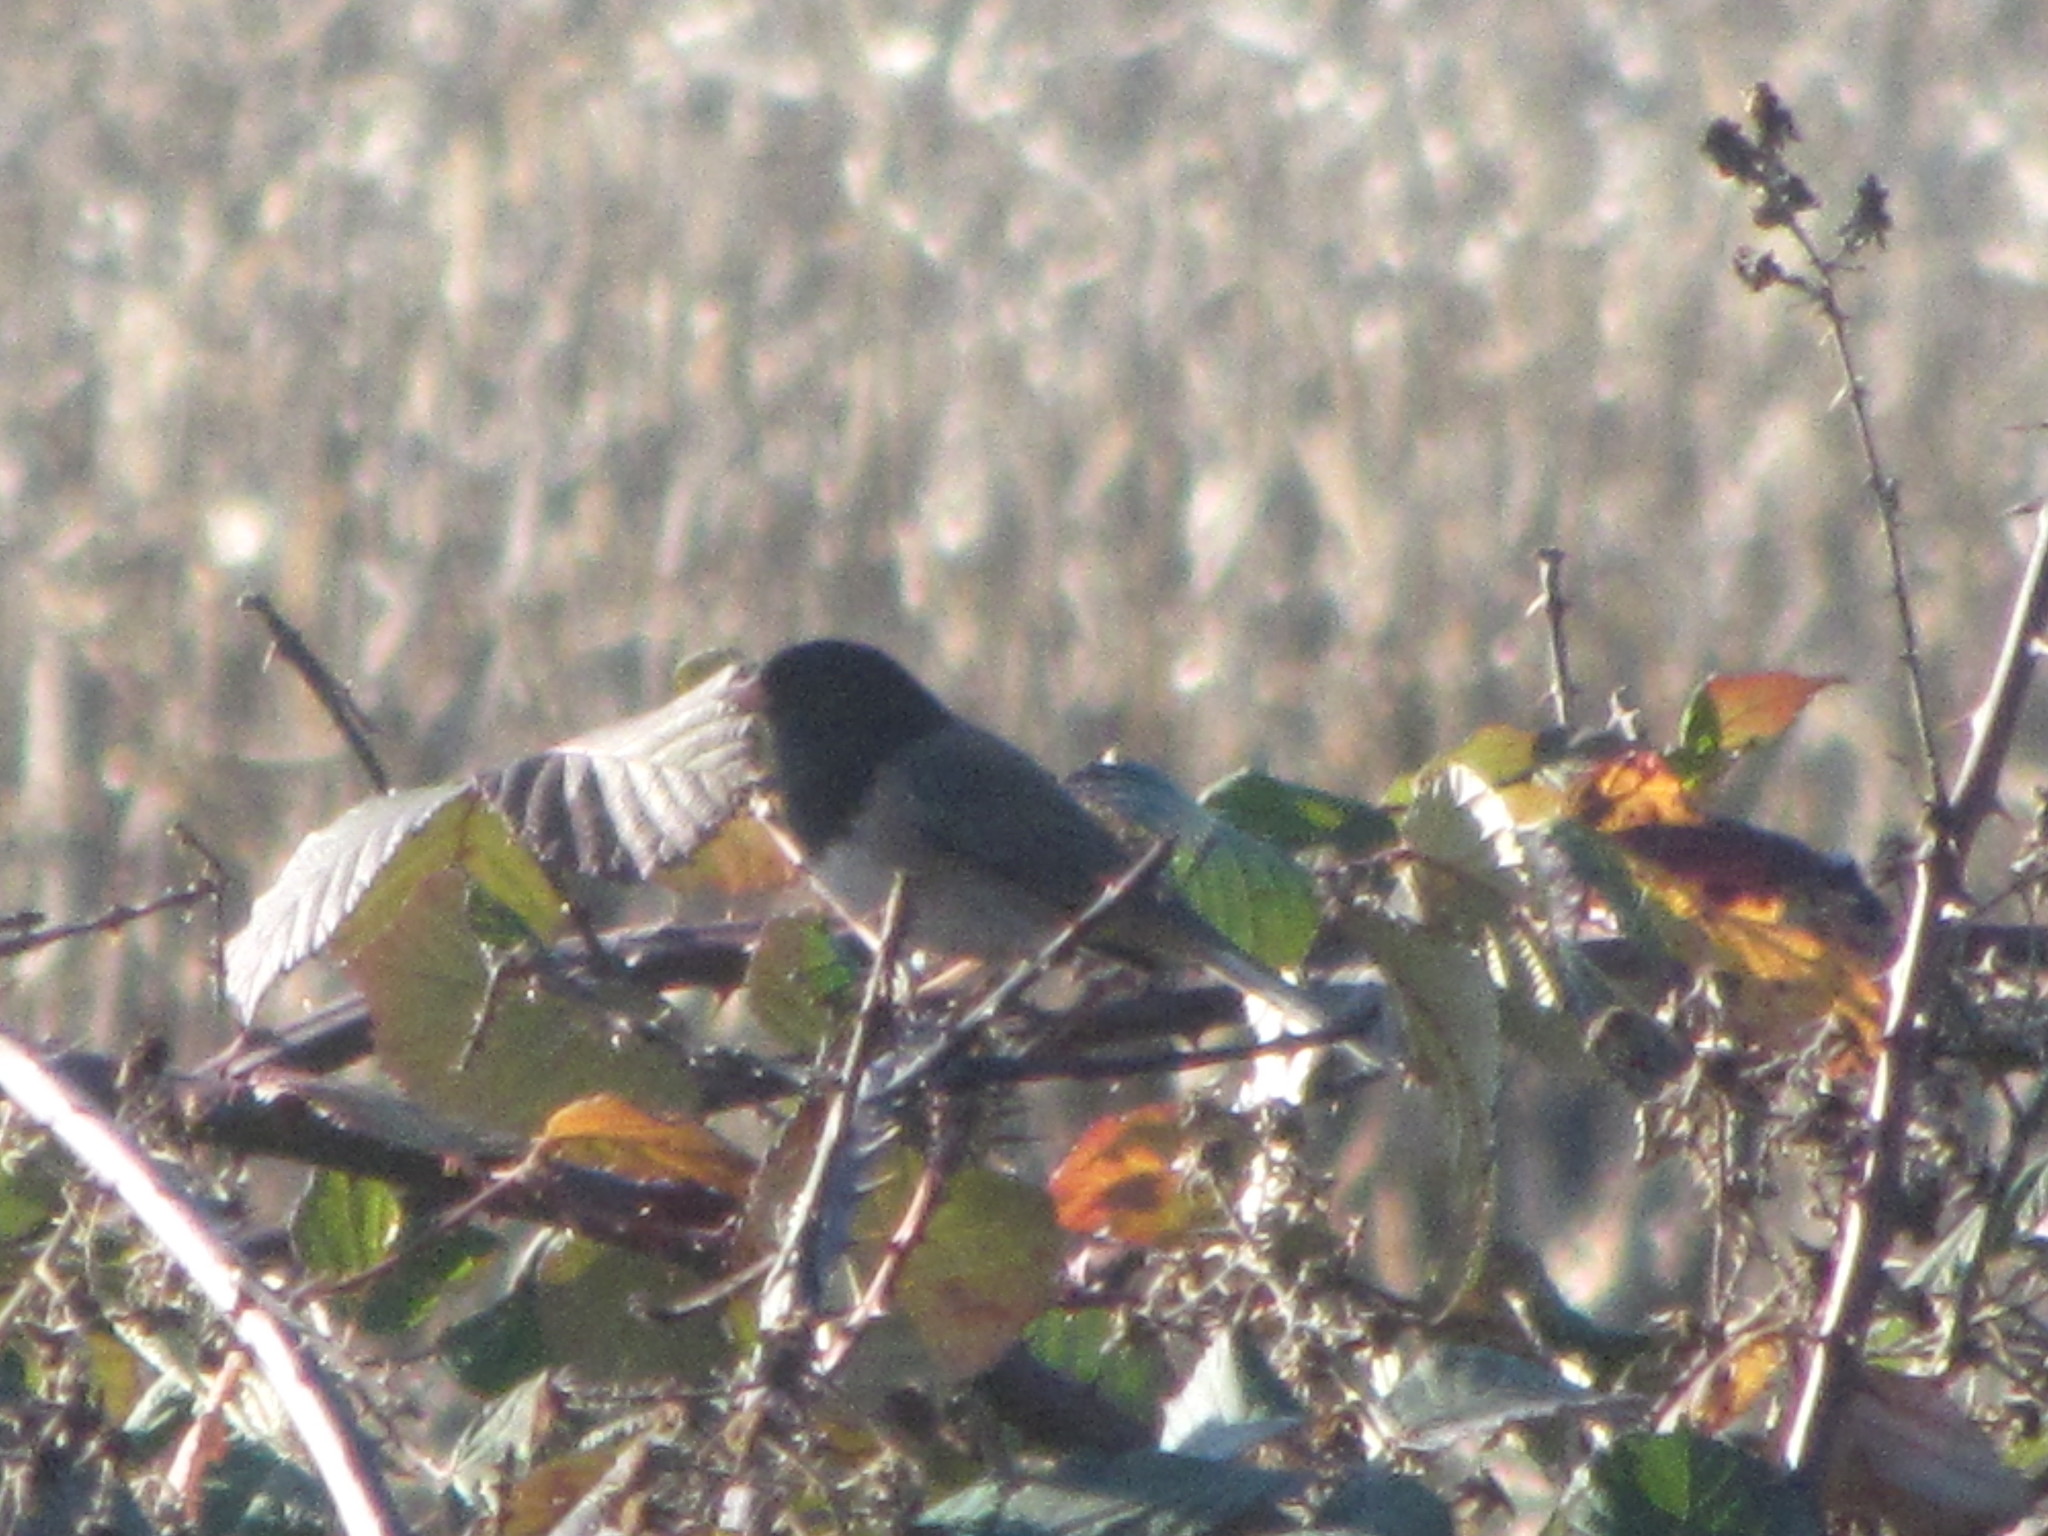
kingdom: Animalia
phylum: Chordata
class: Aves
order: Passeriformes
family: Passerellidae
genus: Junco
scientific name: Junco hyemalis
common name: Dark-eyed junco
